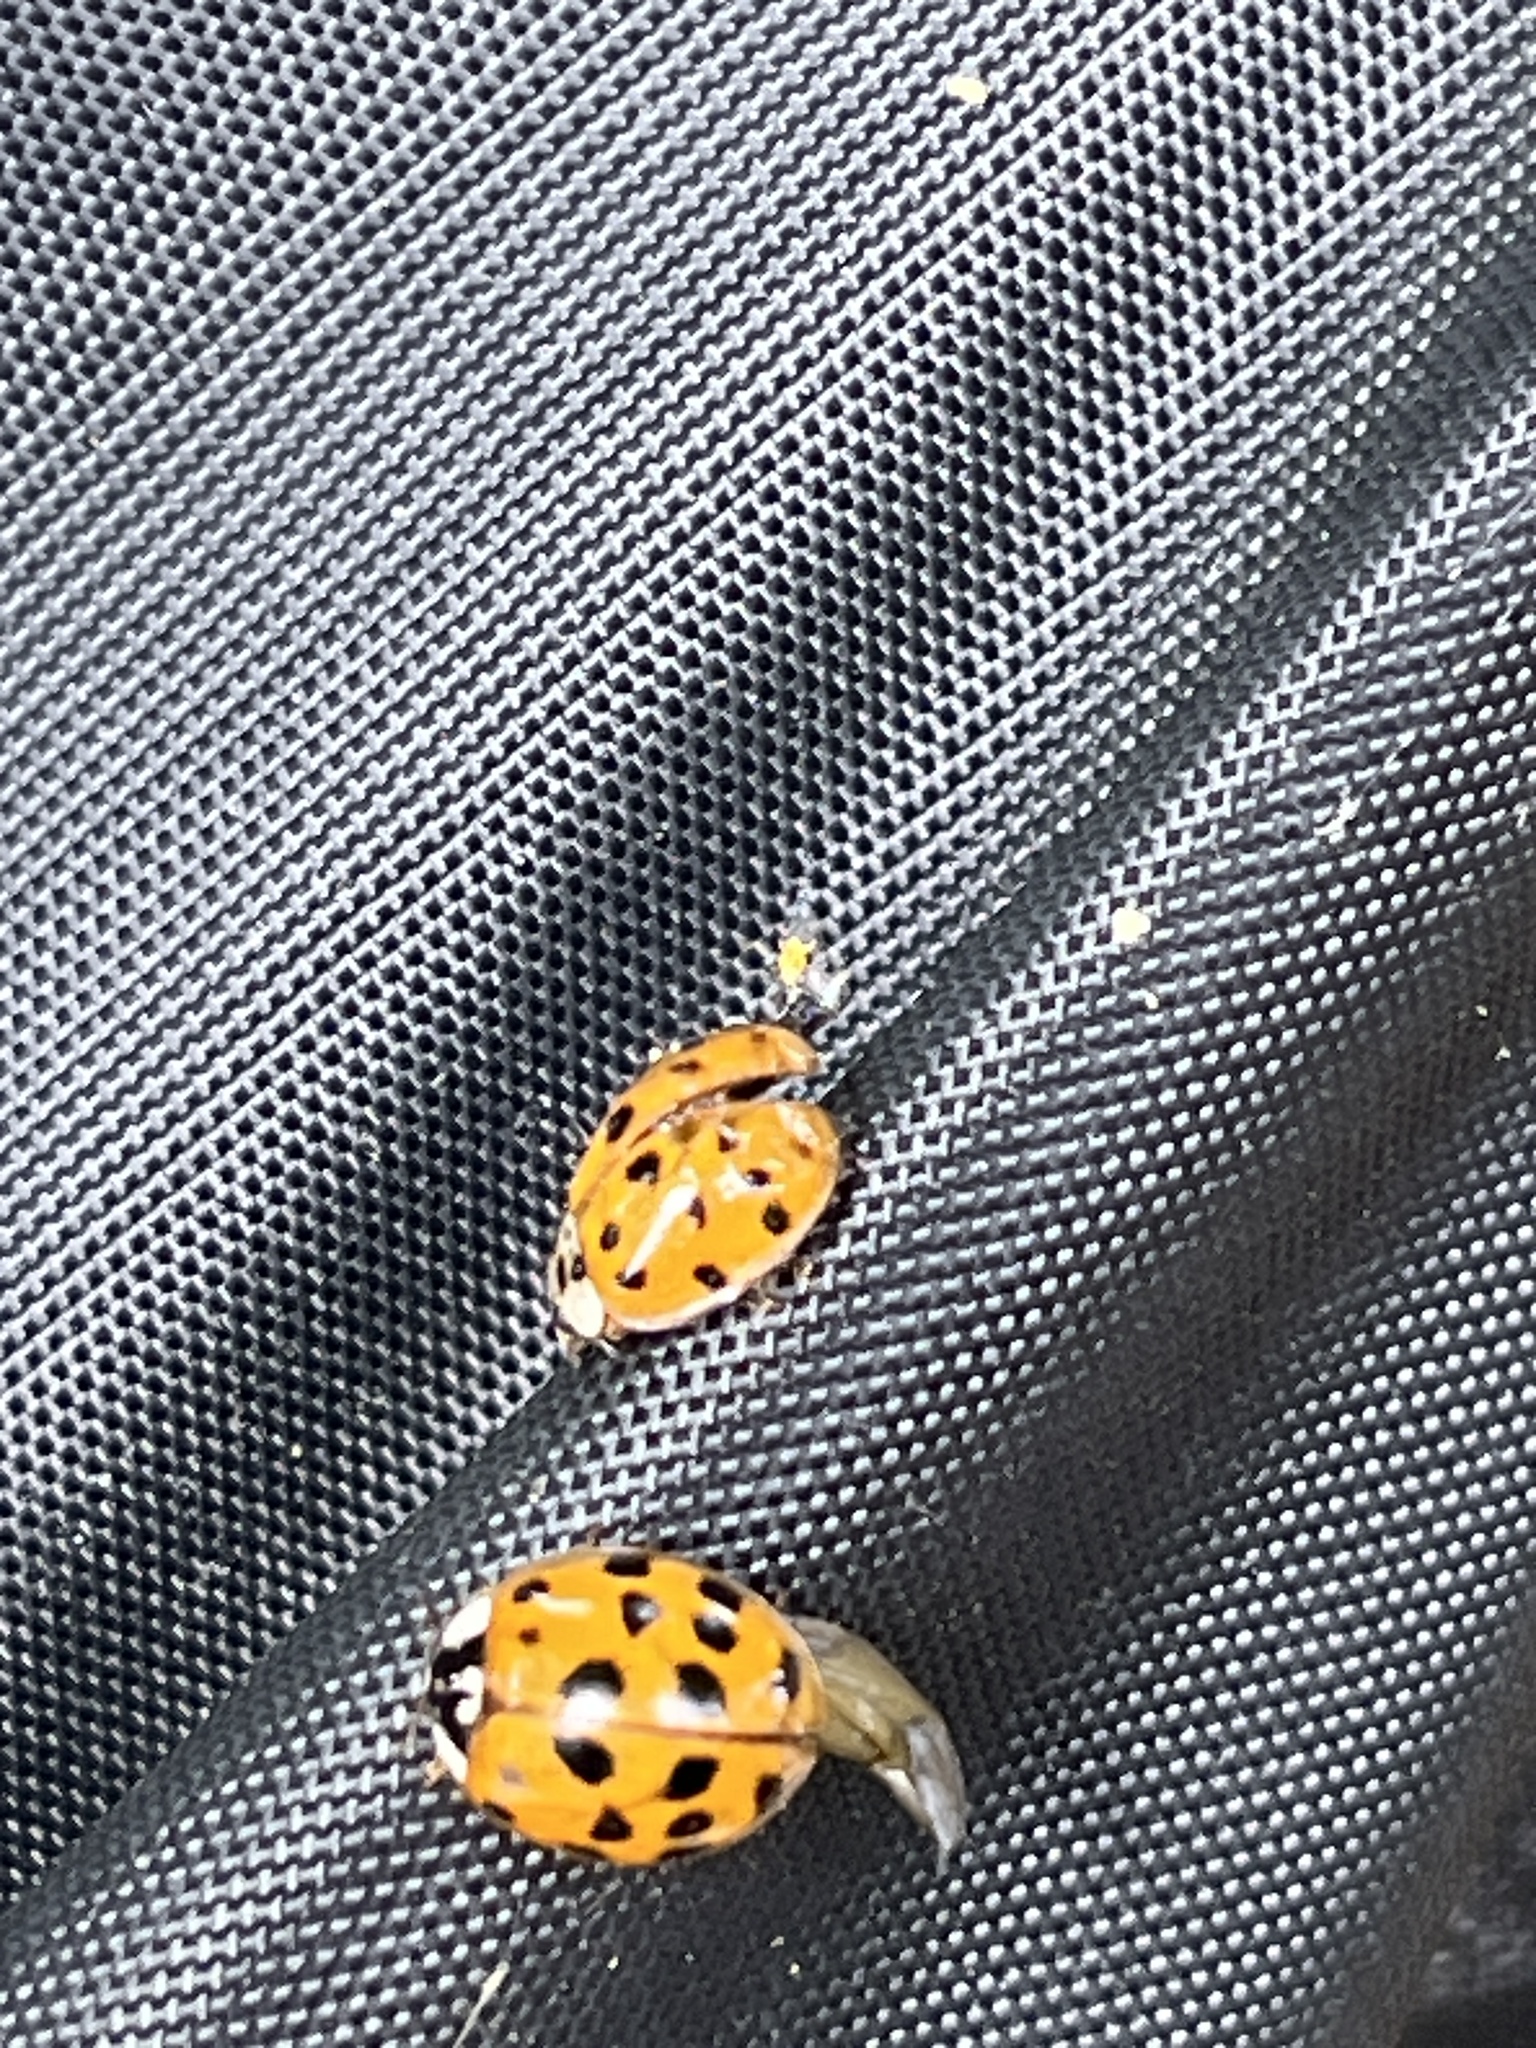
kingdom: Animalia
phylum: Arthropoda
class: Insecta
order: Coleoptera
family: Coccinellidae
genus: Harmonia
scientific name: Harmonia axyridis
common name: Harlequin ladybird
